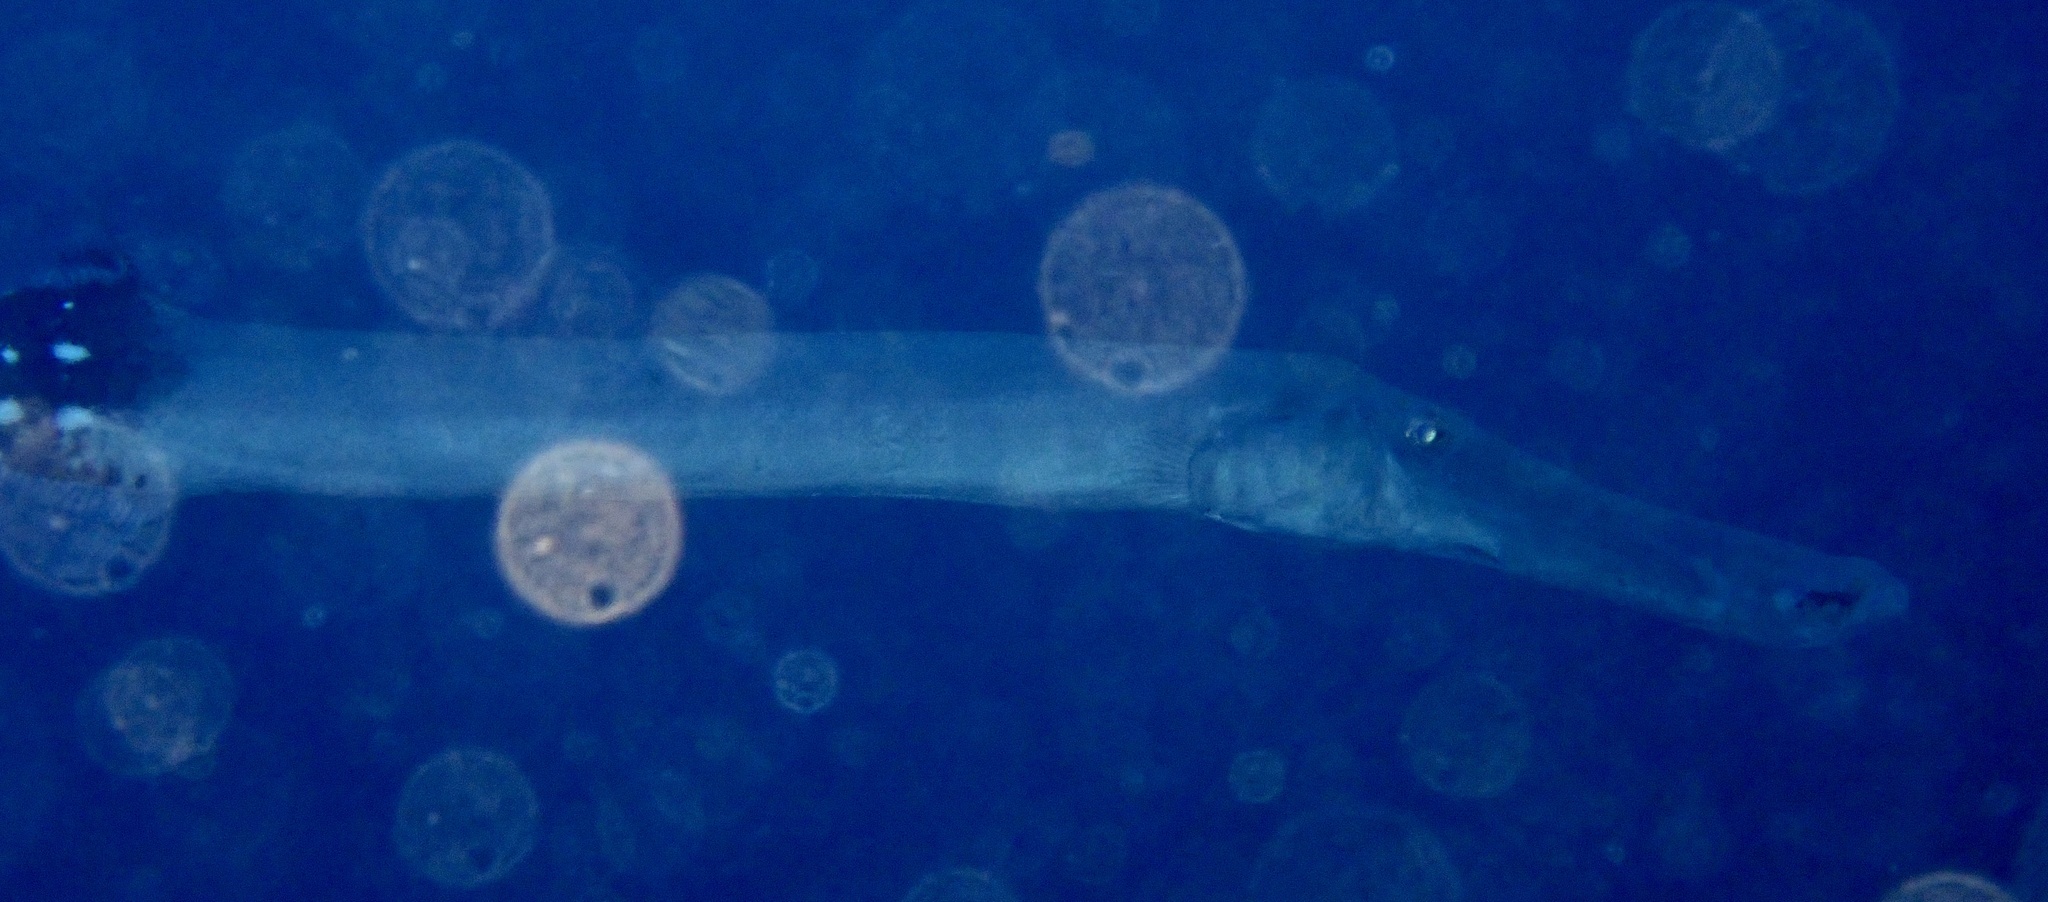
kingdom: Animalia
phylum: Chordata
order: Syngnathiformes
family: Aulostomidae
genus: Aulostomus
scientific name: Aulostomus strigosus
